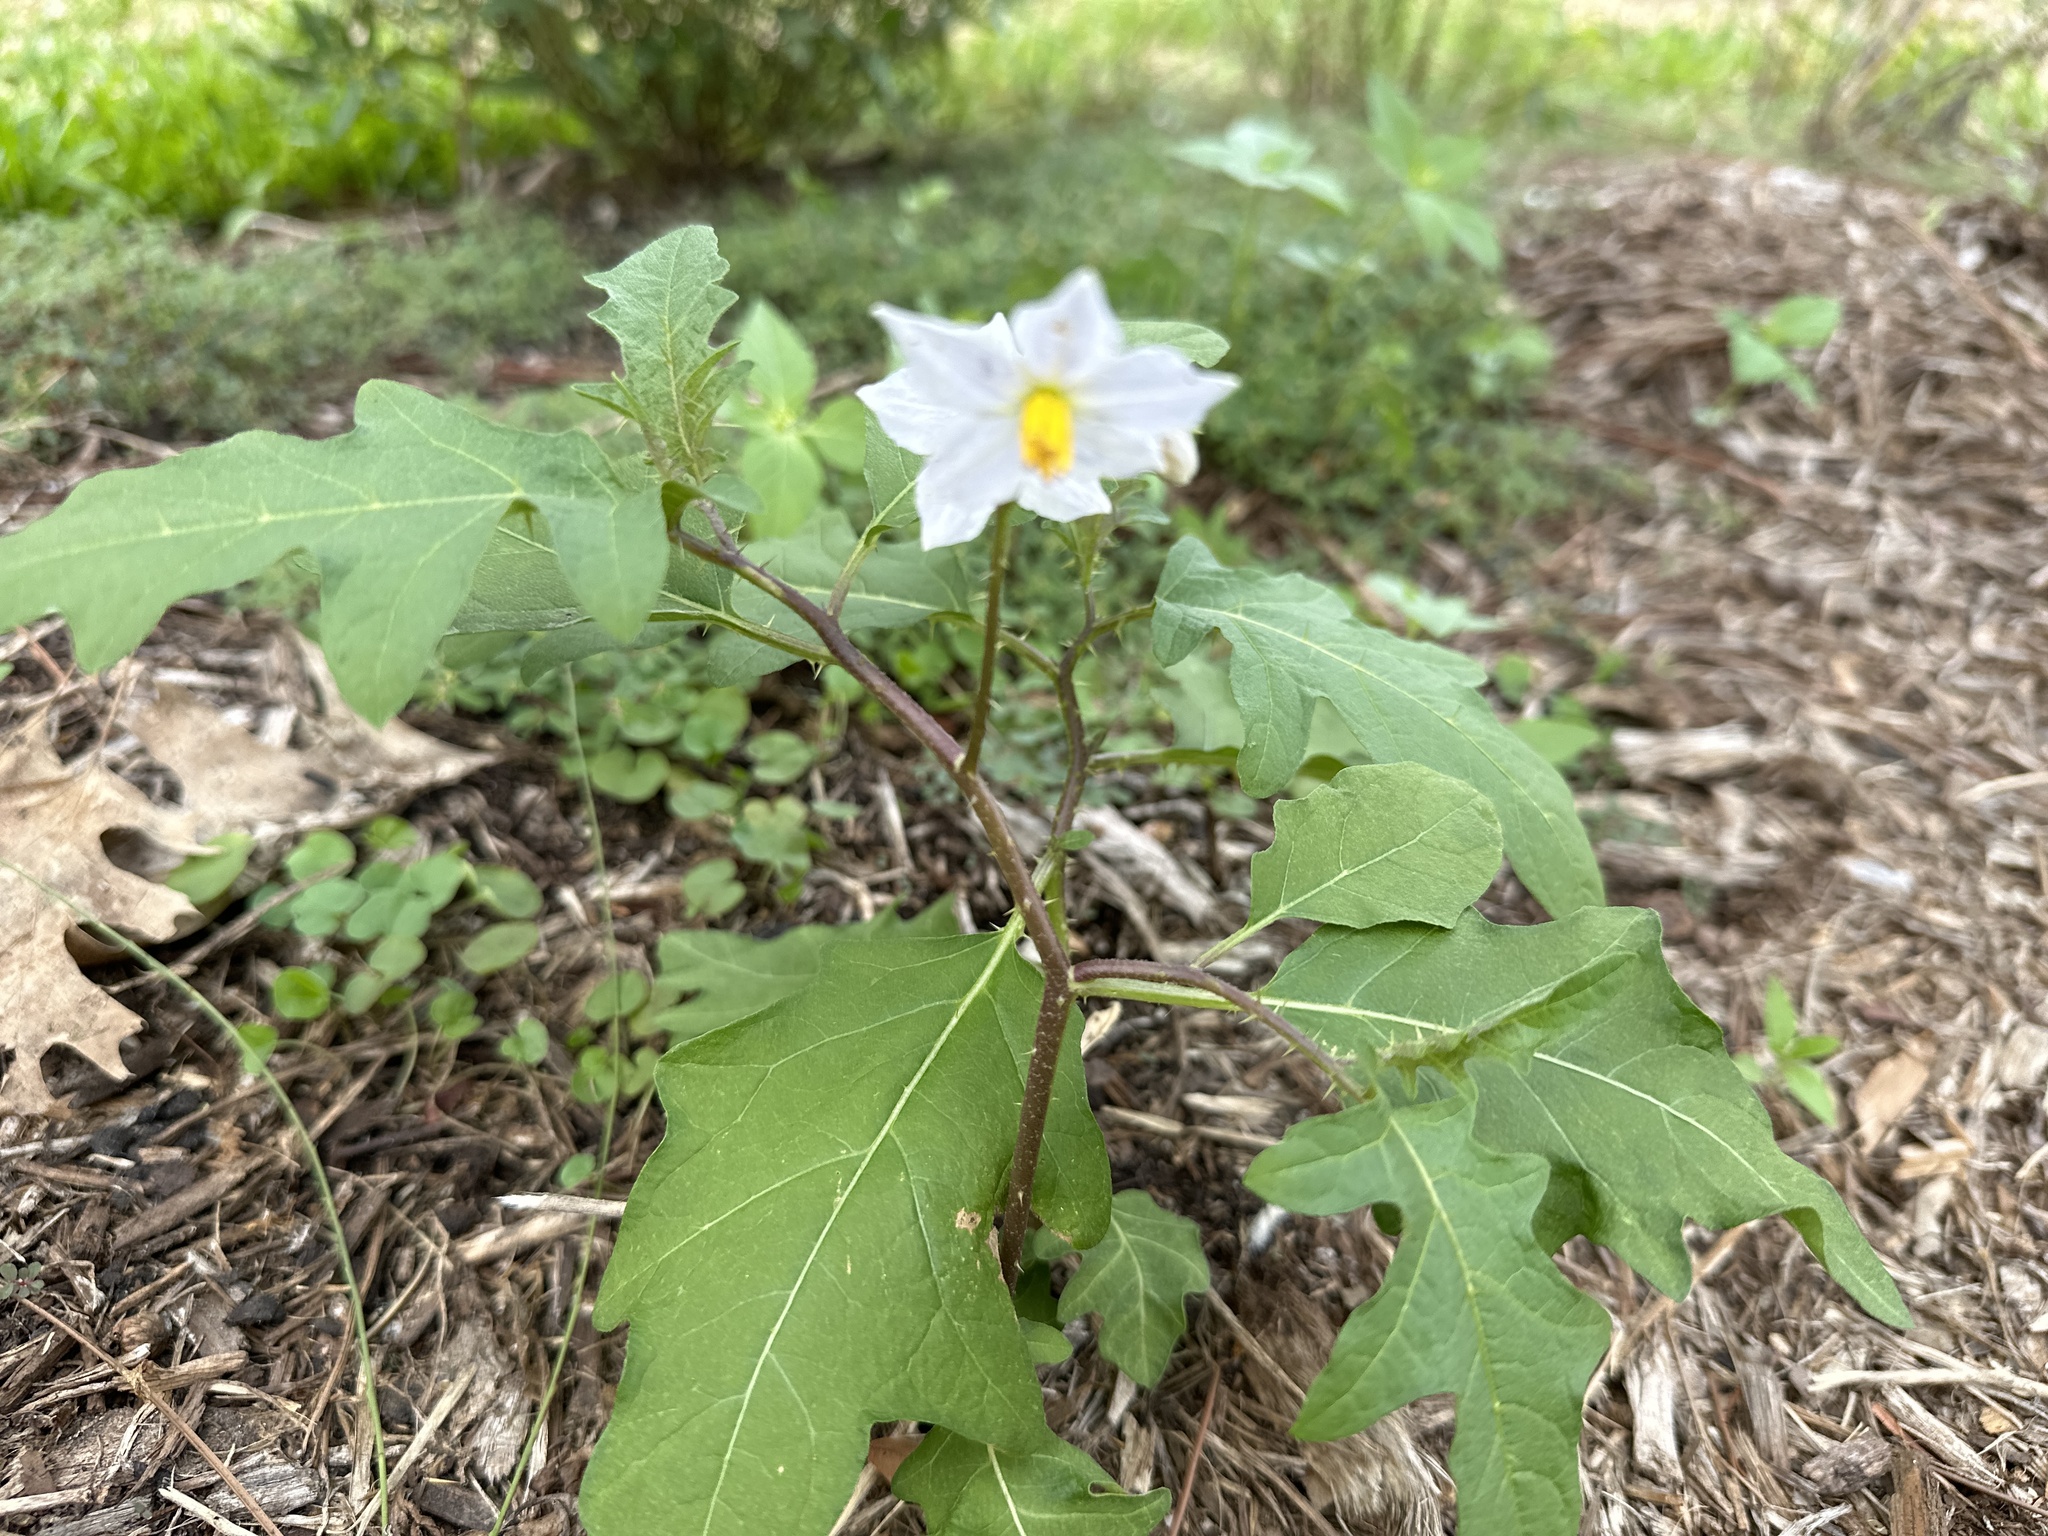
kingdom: Plantae
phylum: Tracheophyta
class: Magnoliopsida
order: Solanales
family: Solanaceae
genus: Solanum
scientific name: Solanum carolinense
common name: Horse-nettle
